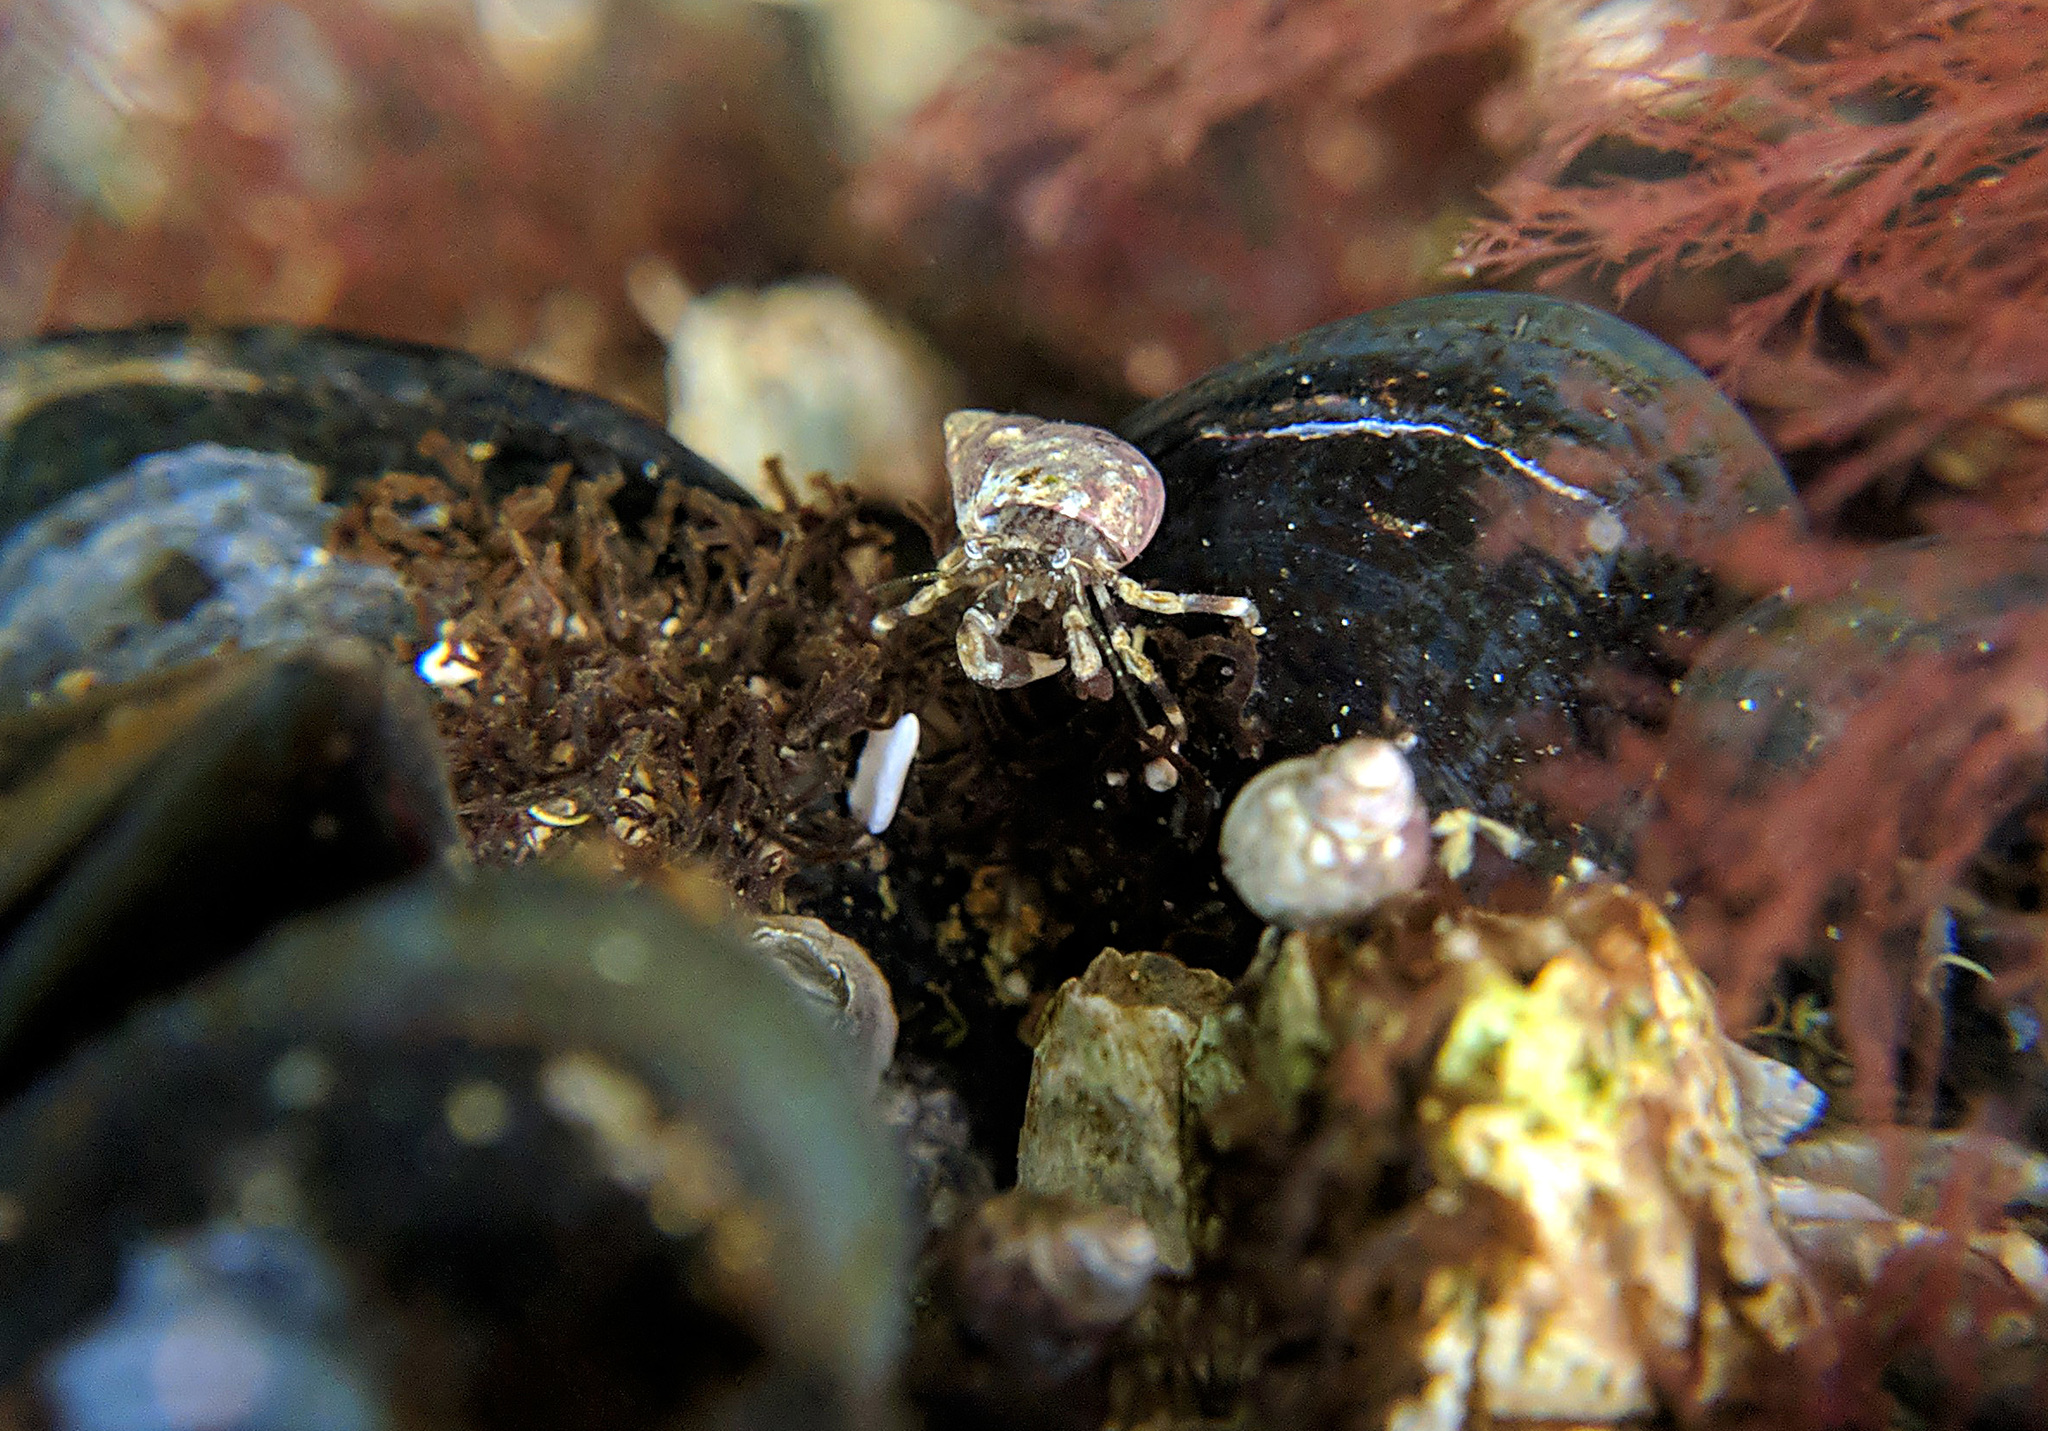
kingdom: Animalia
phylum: Arthropoda
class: Malacostraca
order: Decapoda
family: Paguridae
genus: Pagurus
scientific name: Pagurus hirsutiusculus
